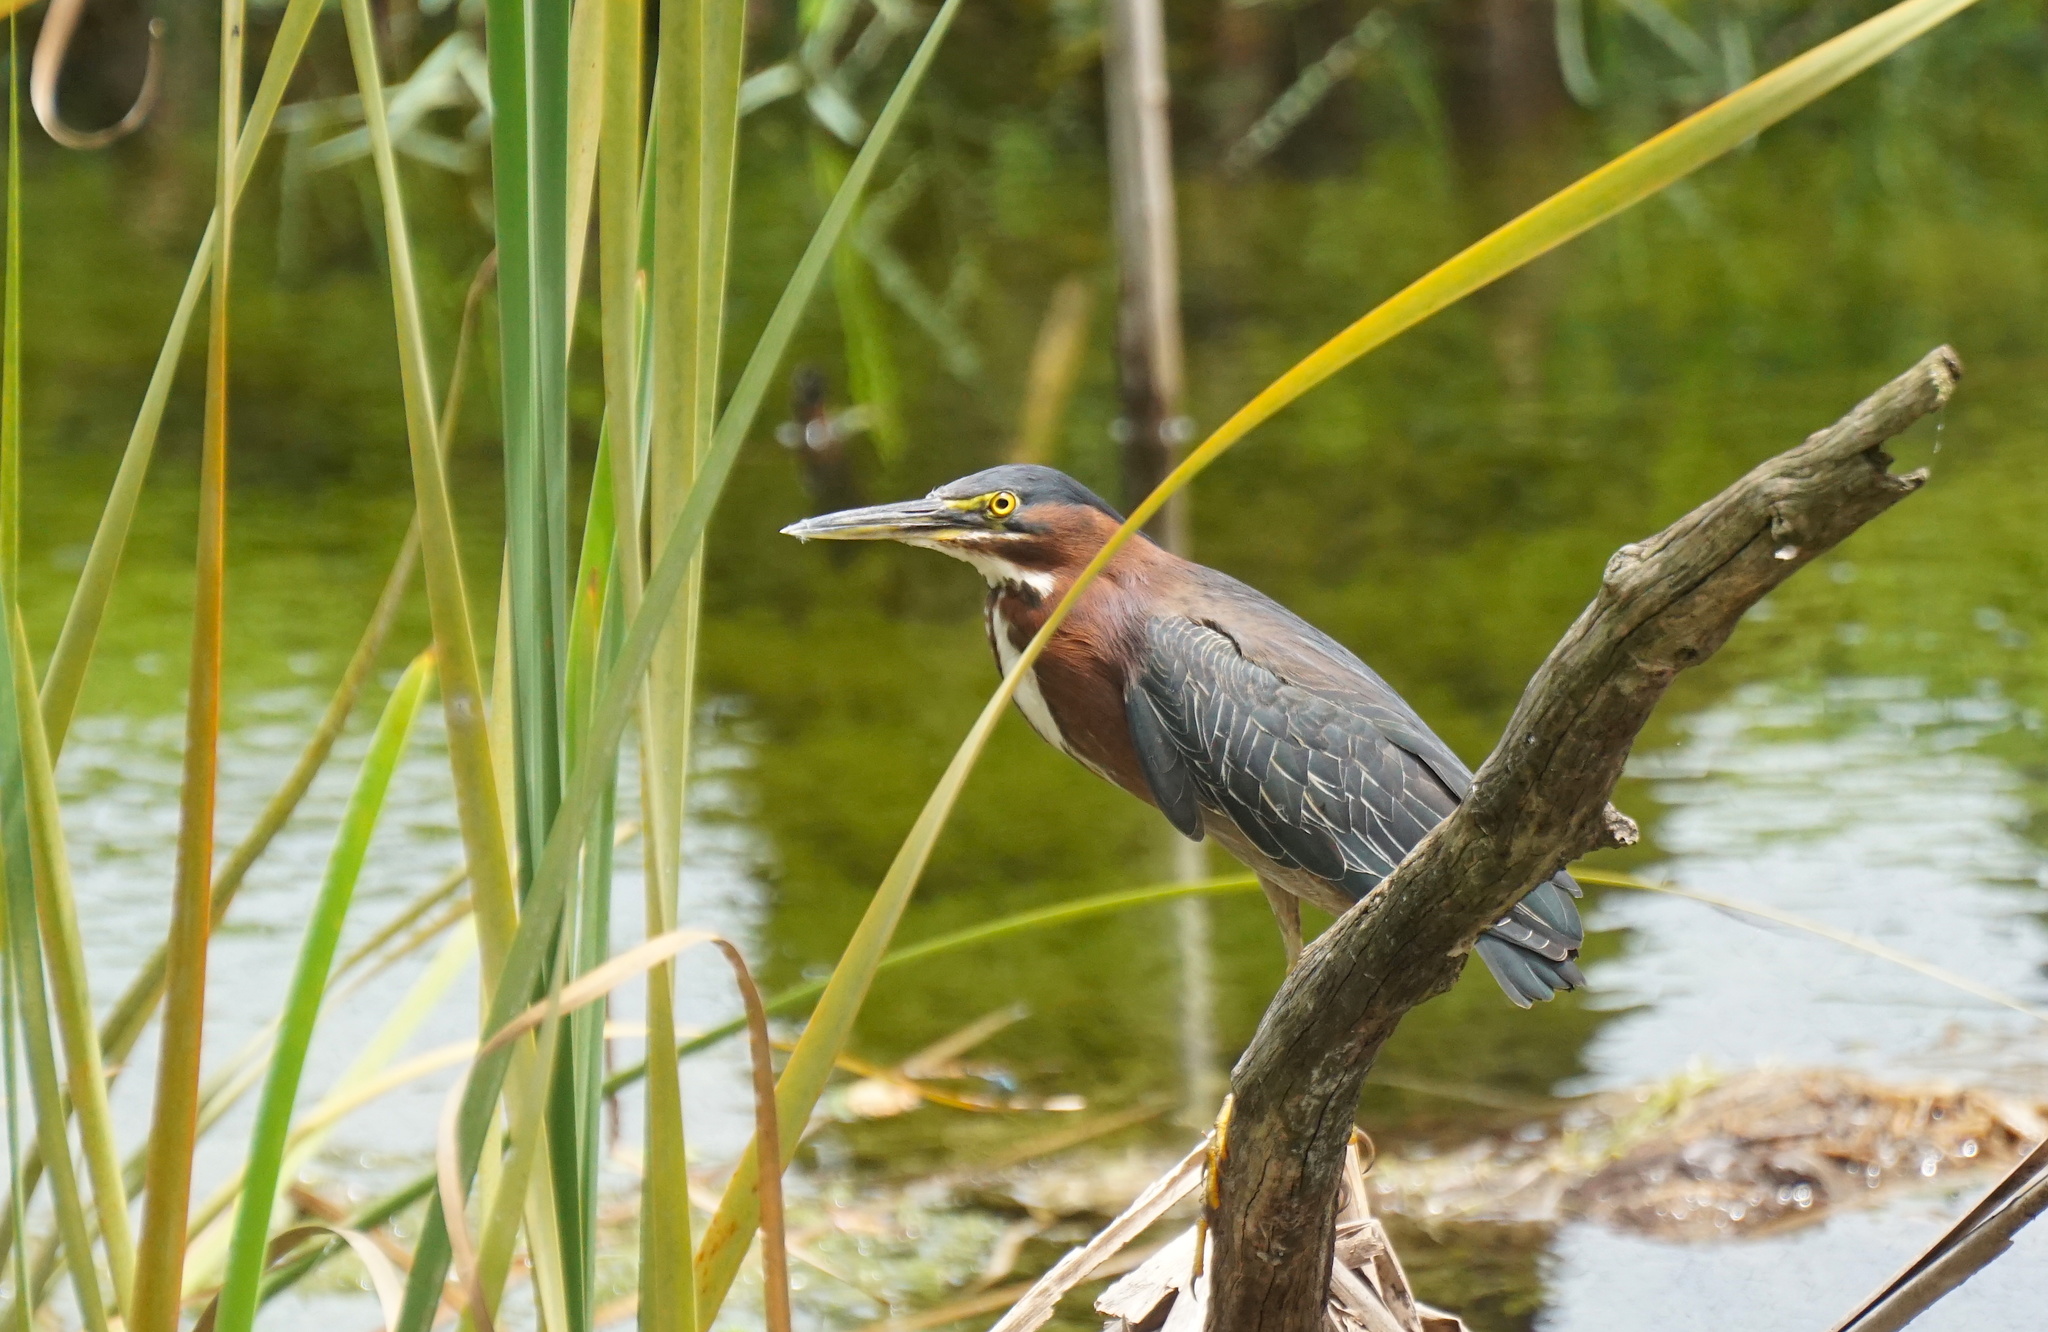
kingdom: Animalia
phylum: Chordata
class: Aves
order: Pelecaniformes
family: Ardeidae
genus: Butorides
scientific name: Butorides virescens
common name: Green heron
